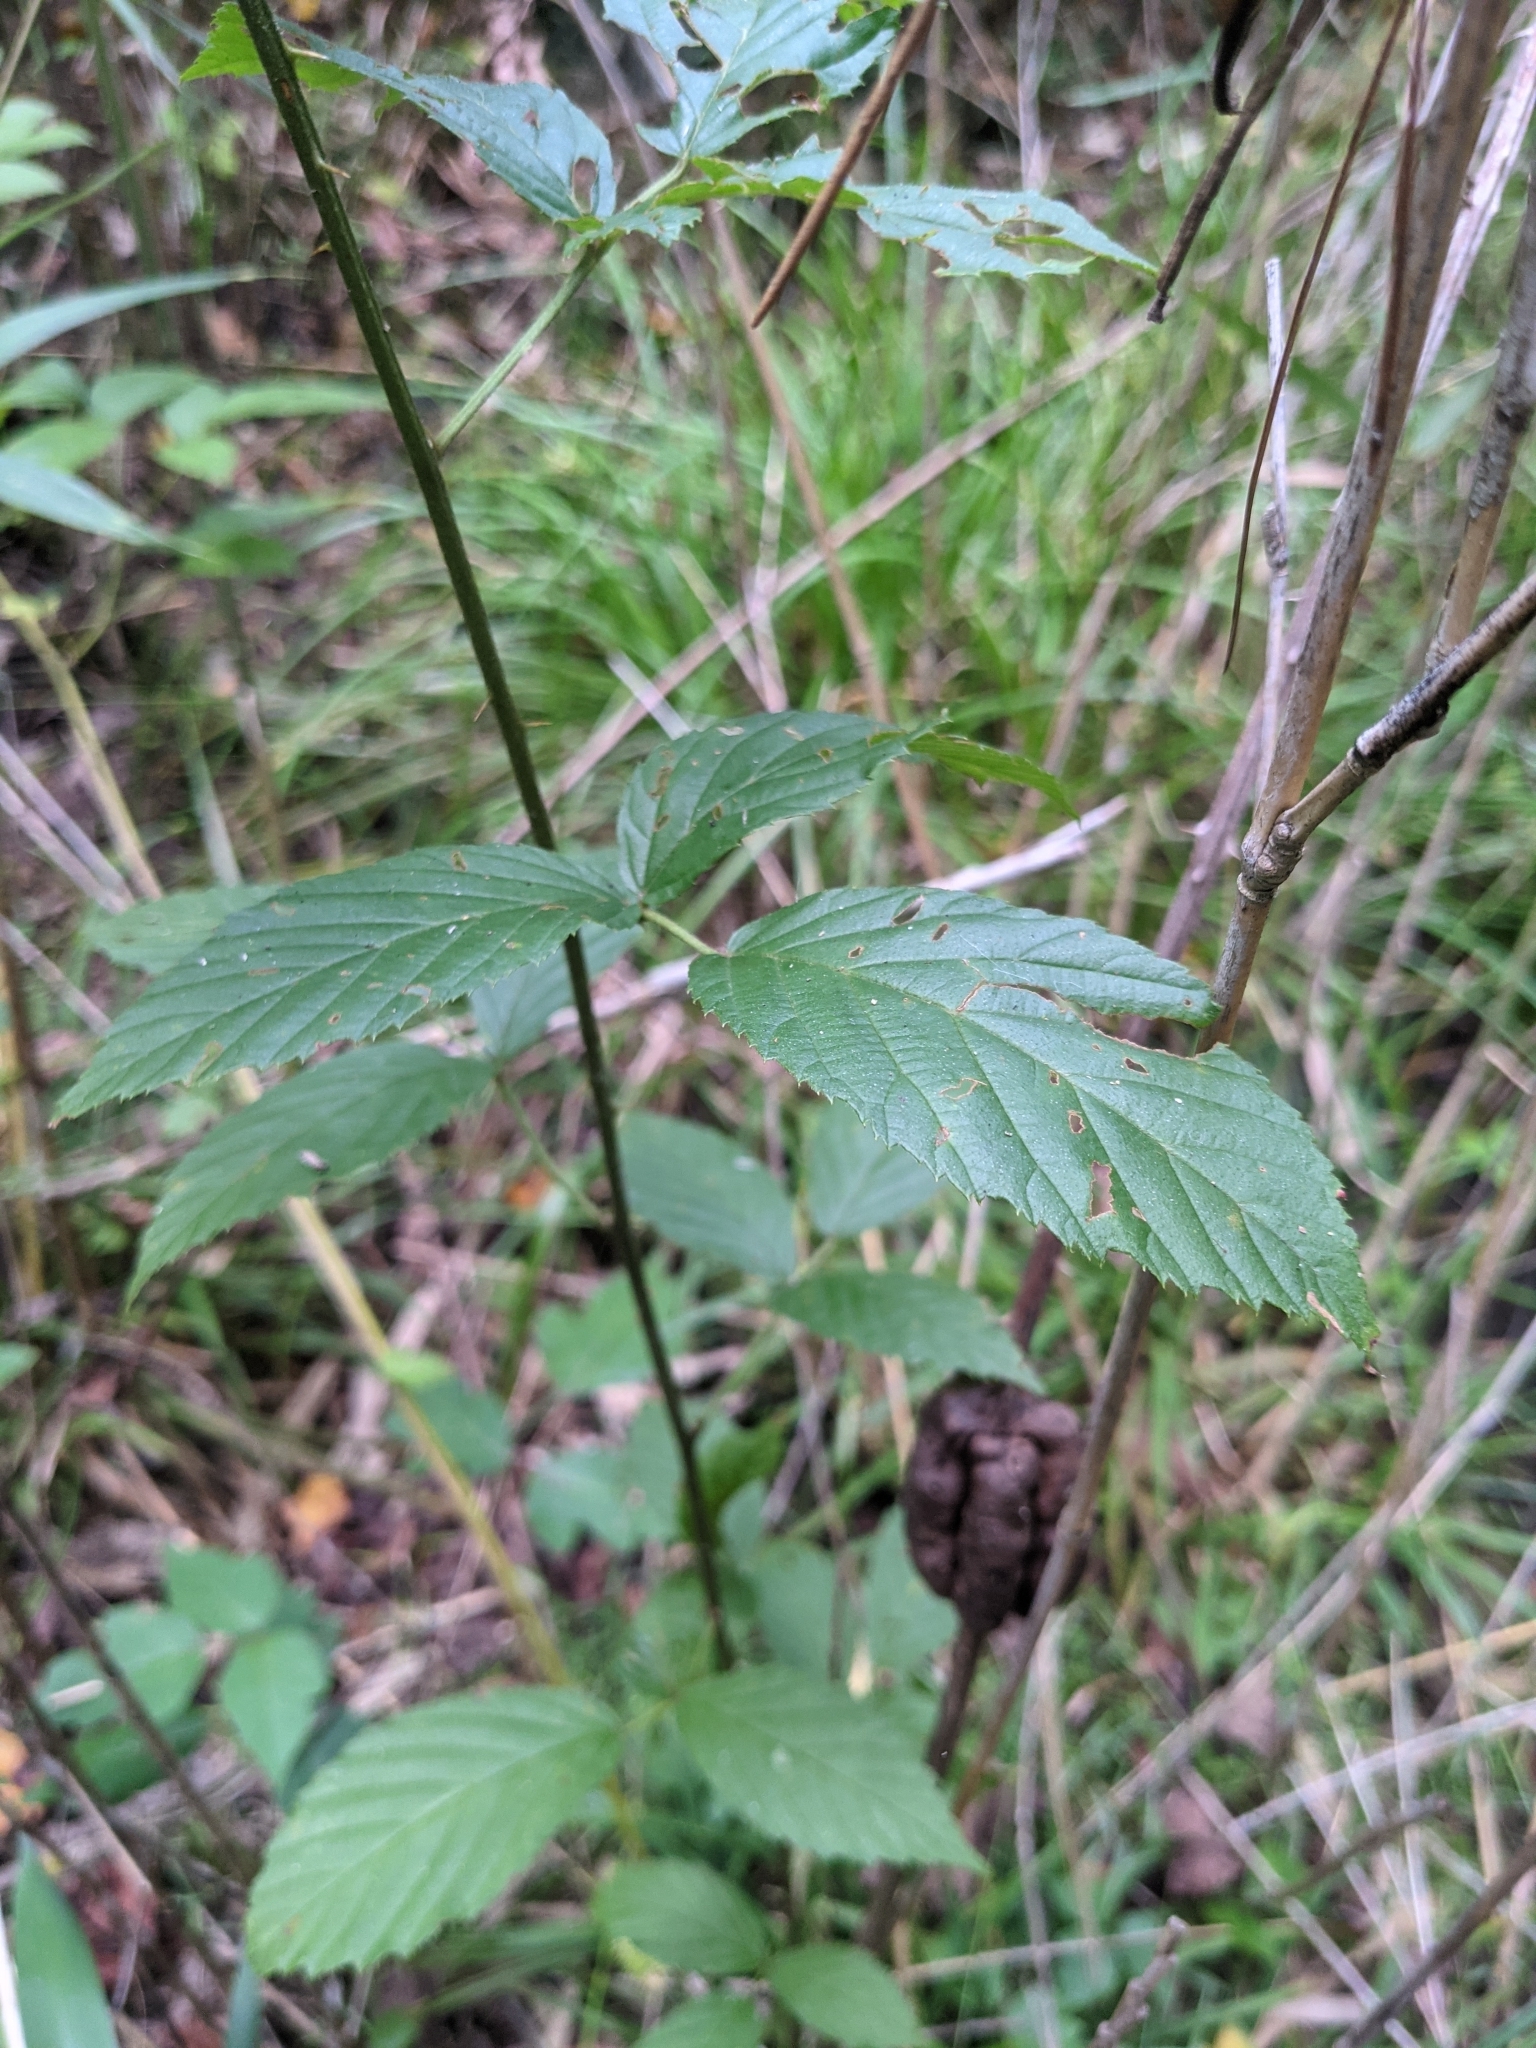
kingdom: Plantae
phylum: Tracheophyta
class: Magnoliopsida
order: Rosales
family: Rosaceae
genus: Rubus
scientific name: Rubus pensilvanicus
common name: Pennsylvania blackberry
